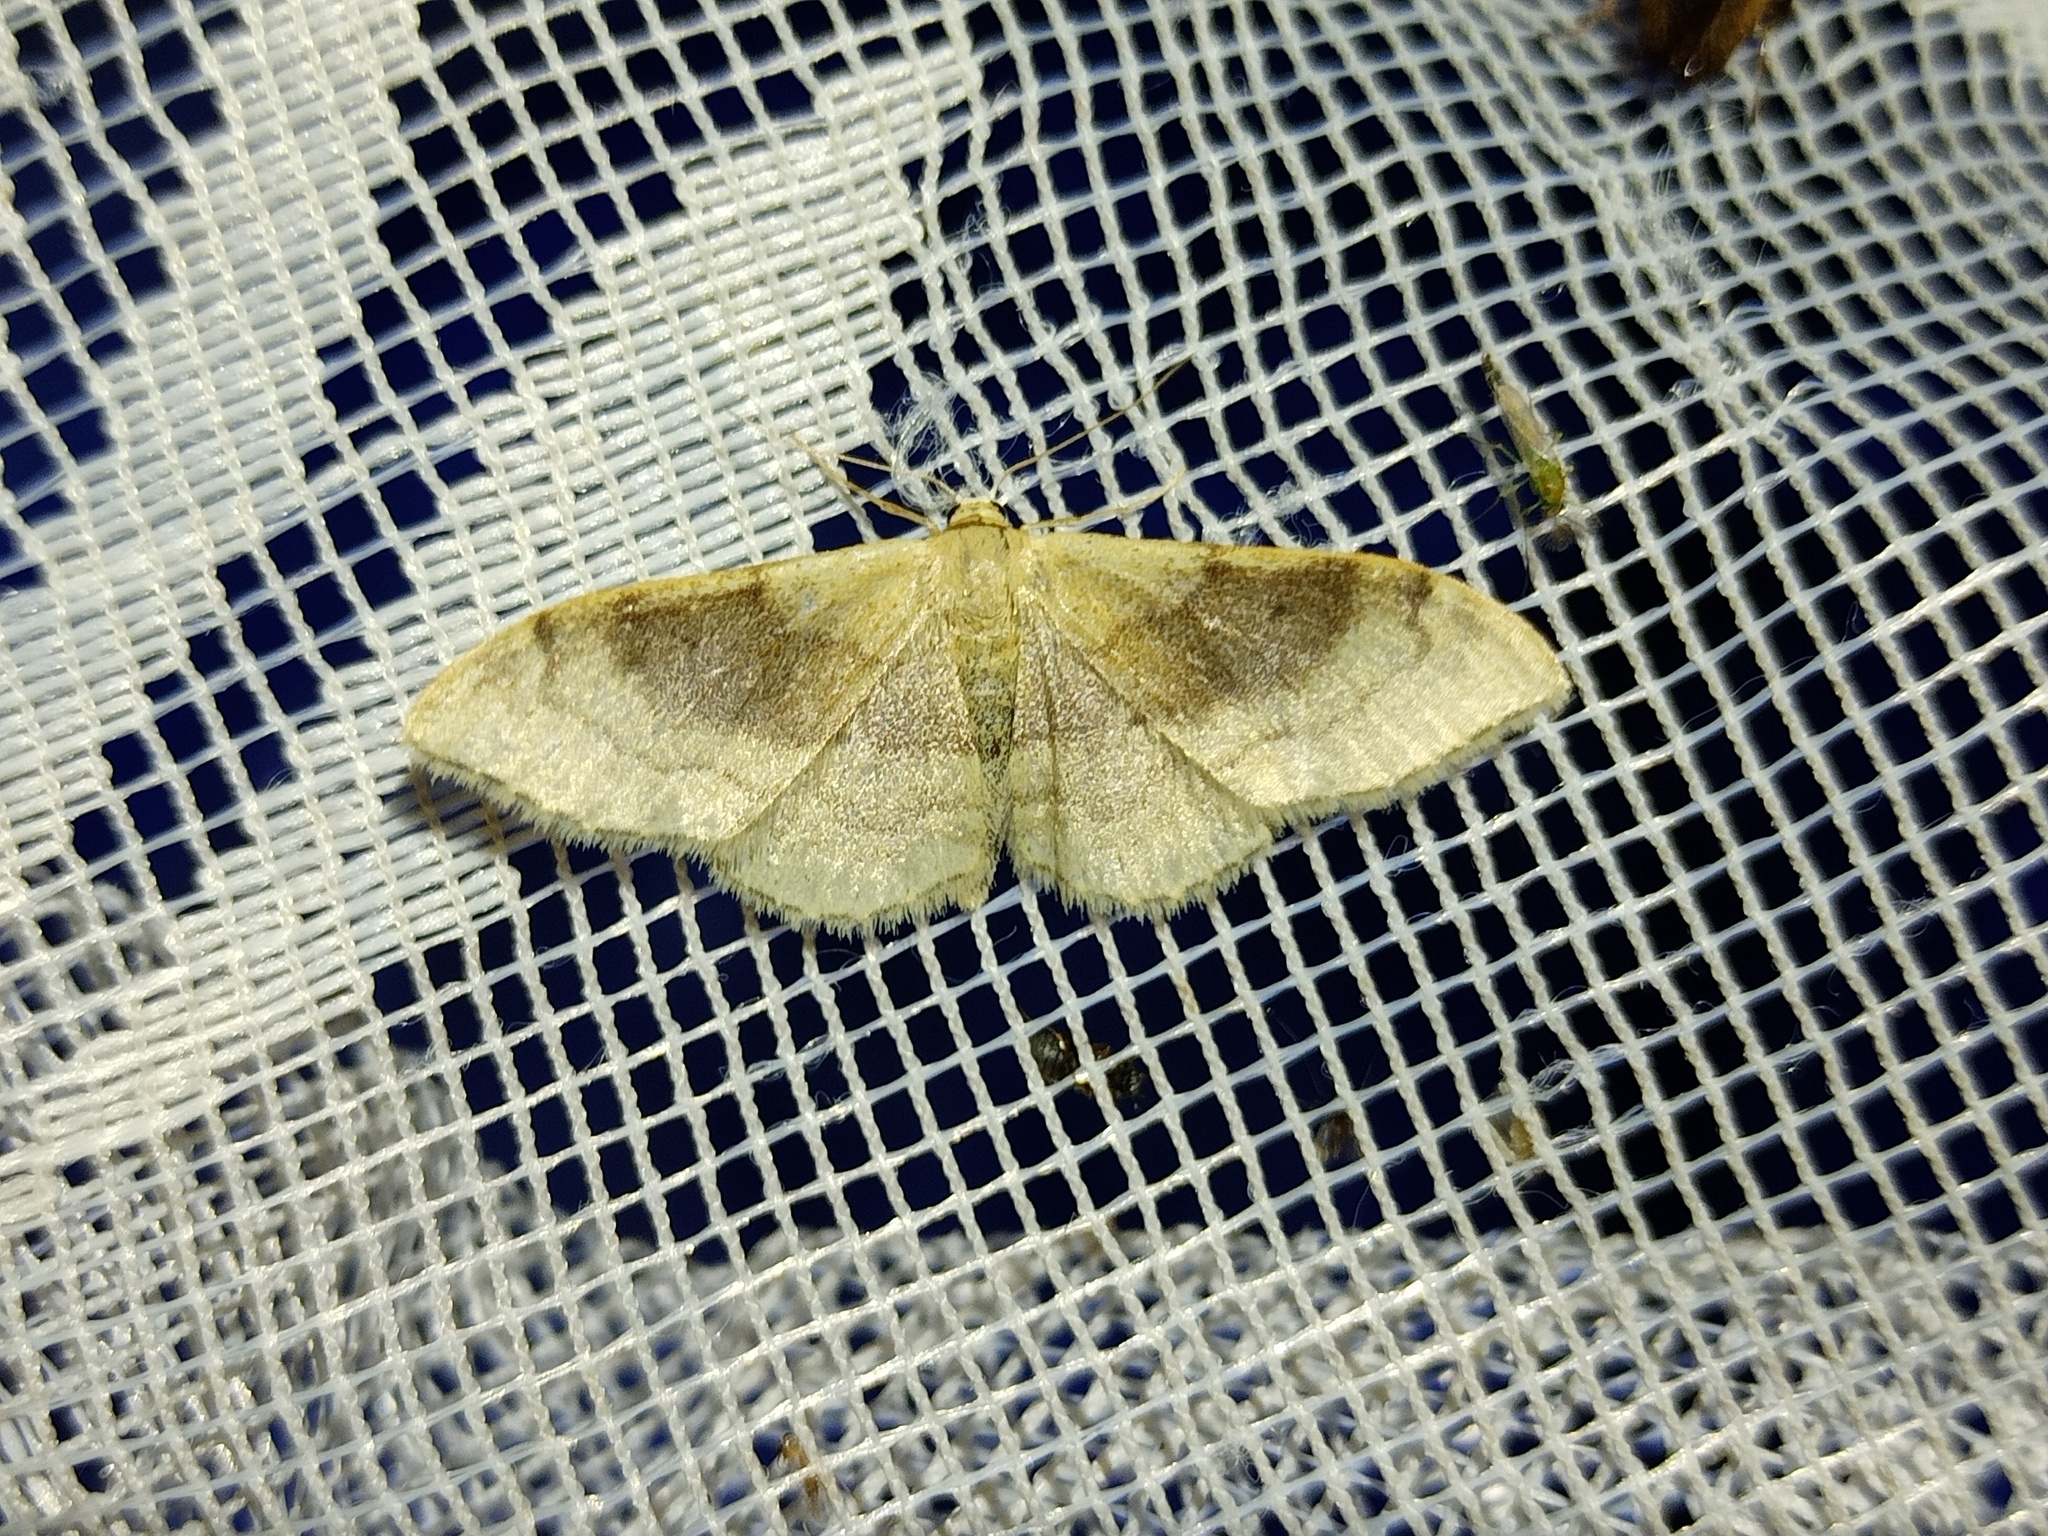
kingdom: Animalia
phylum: Arthropoda
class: Insecta
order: Lepidoptera
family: Geometridae
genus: Idaea
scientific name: Idaea degeneraria
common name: Portland ribbon wave
